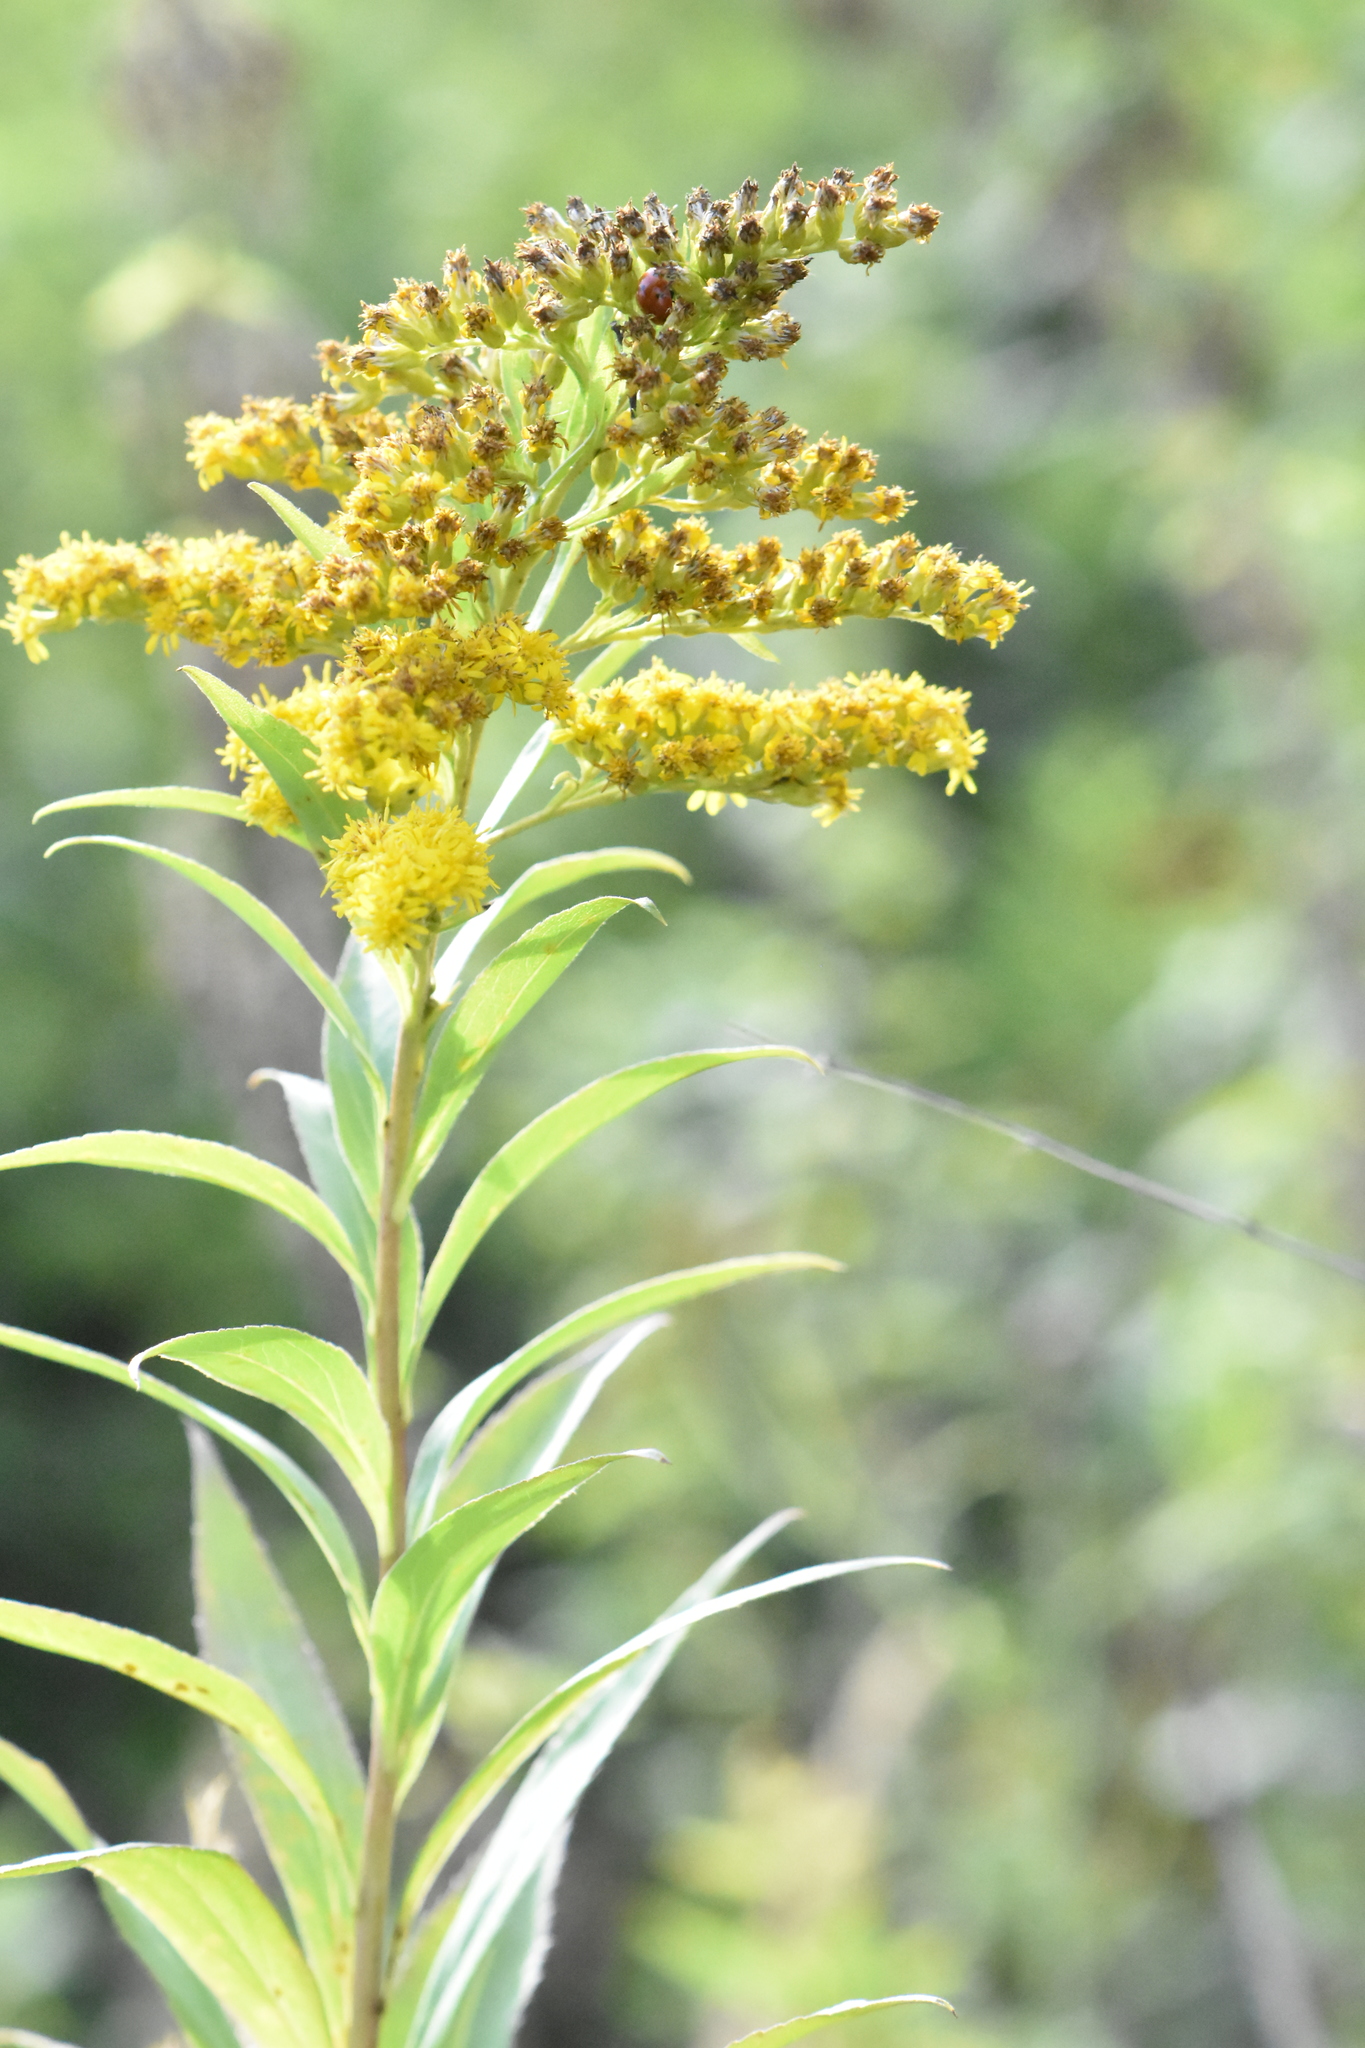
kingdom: Plantae
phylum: Tracheophyta
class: Magnoliopsida
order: Asterales
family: Asteraceae
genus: Solidago
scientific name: Solidago gigantea
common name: Giant goldenrod
